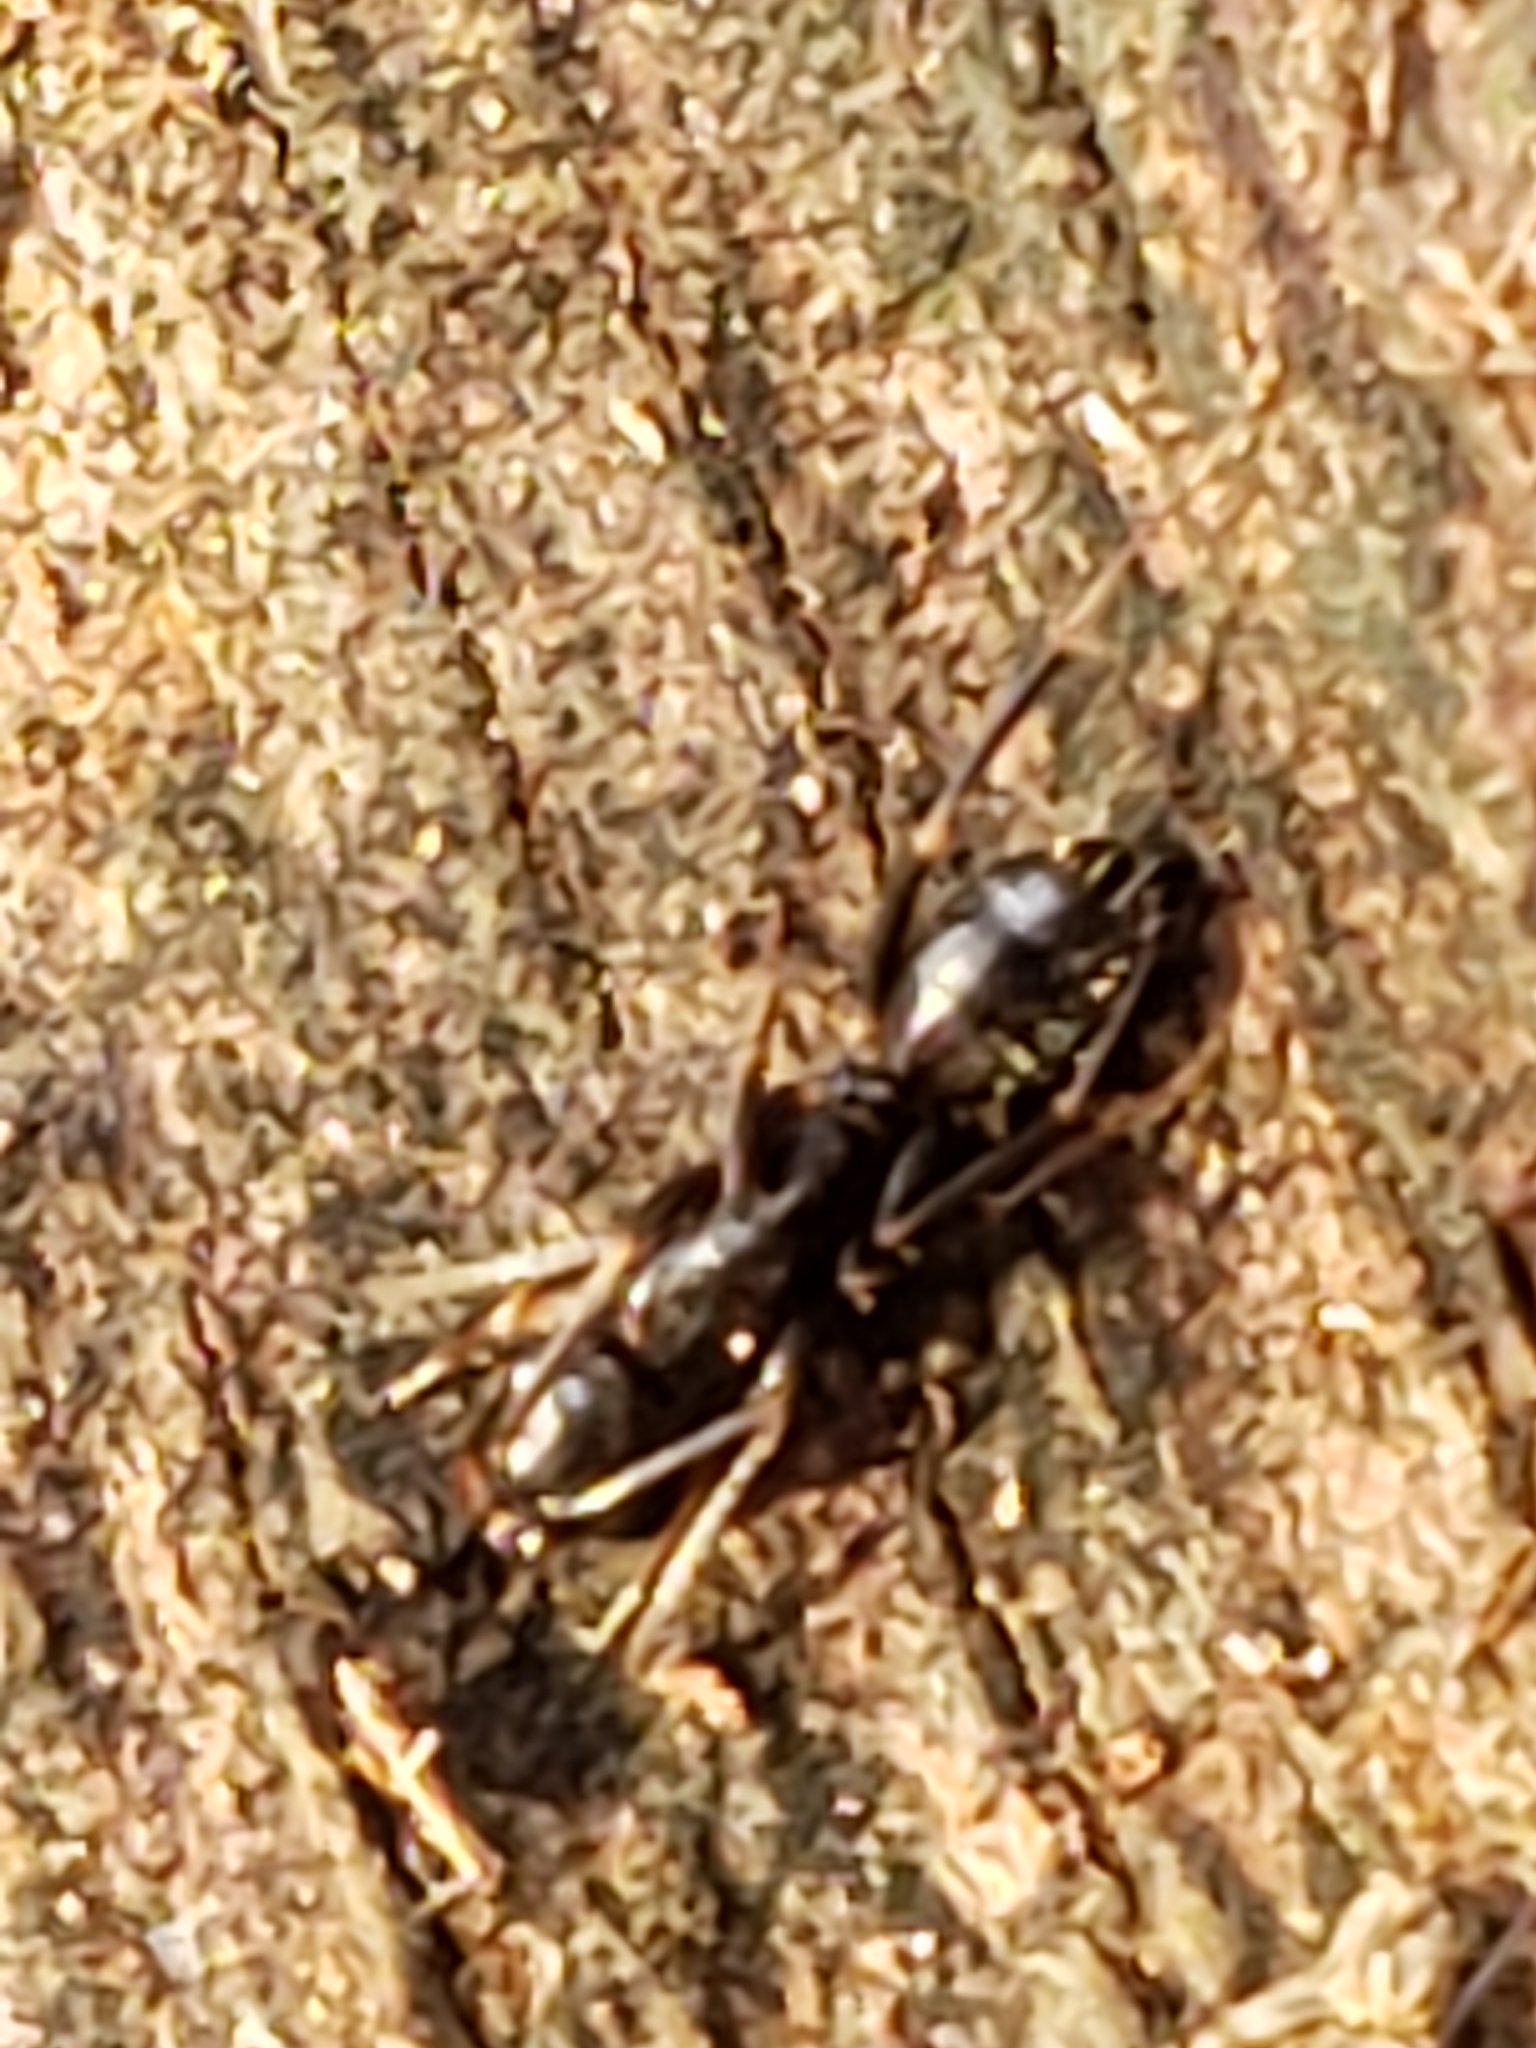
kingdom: Animalia
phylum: Arthropoda
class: Insecta
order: Hymenoptera
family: Formicidae
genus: Camponotus
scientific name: Camponotus pennsylvanicus
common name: Black carpenter ant
